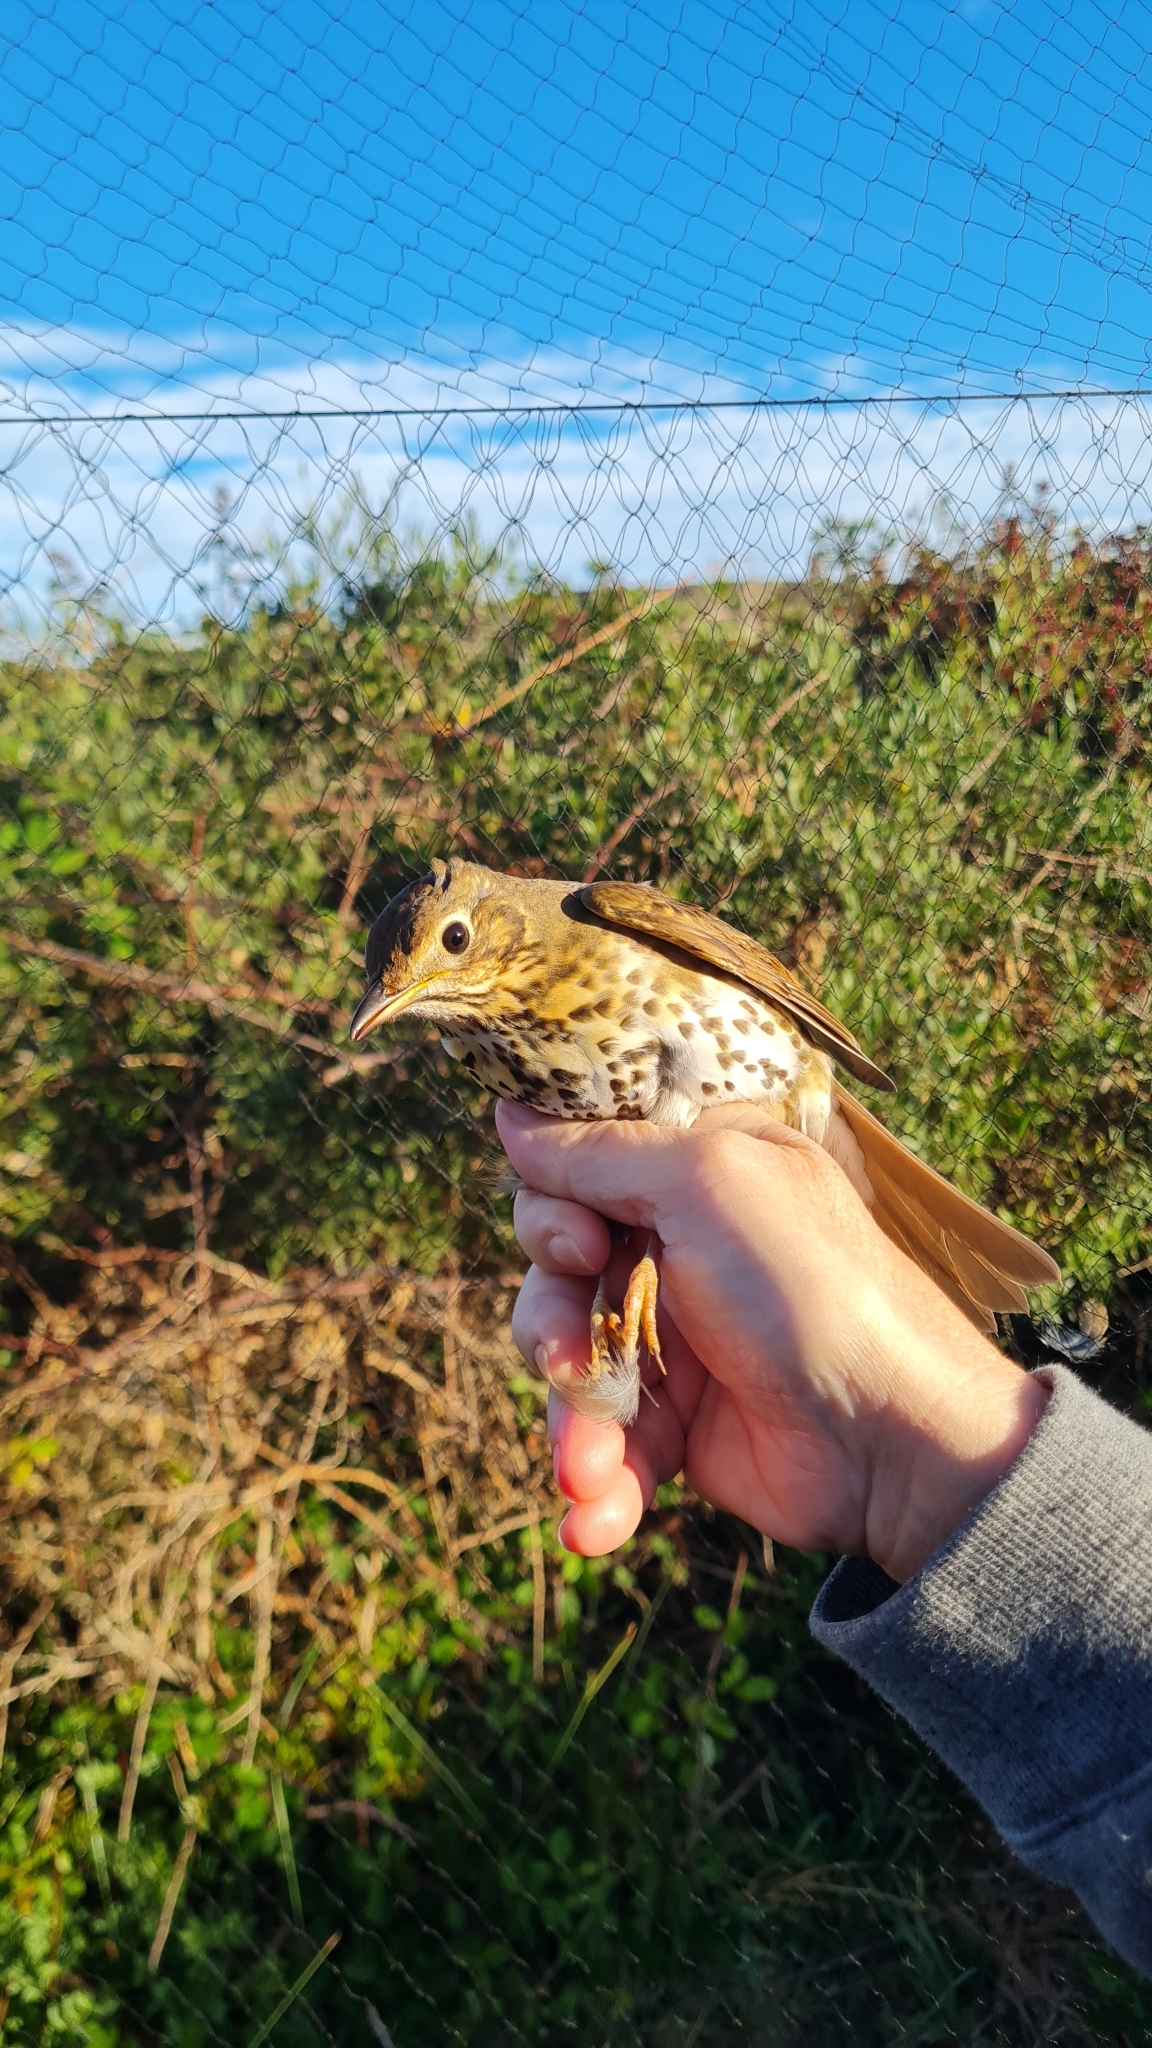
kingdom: Animalia
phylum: Chordata
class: Aves
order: Passeriformes
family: Turdidae
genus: Turdus
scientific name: Turdus philomelos
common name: Song thrush
